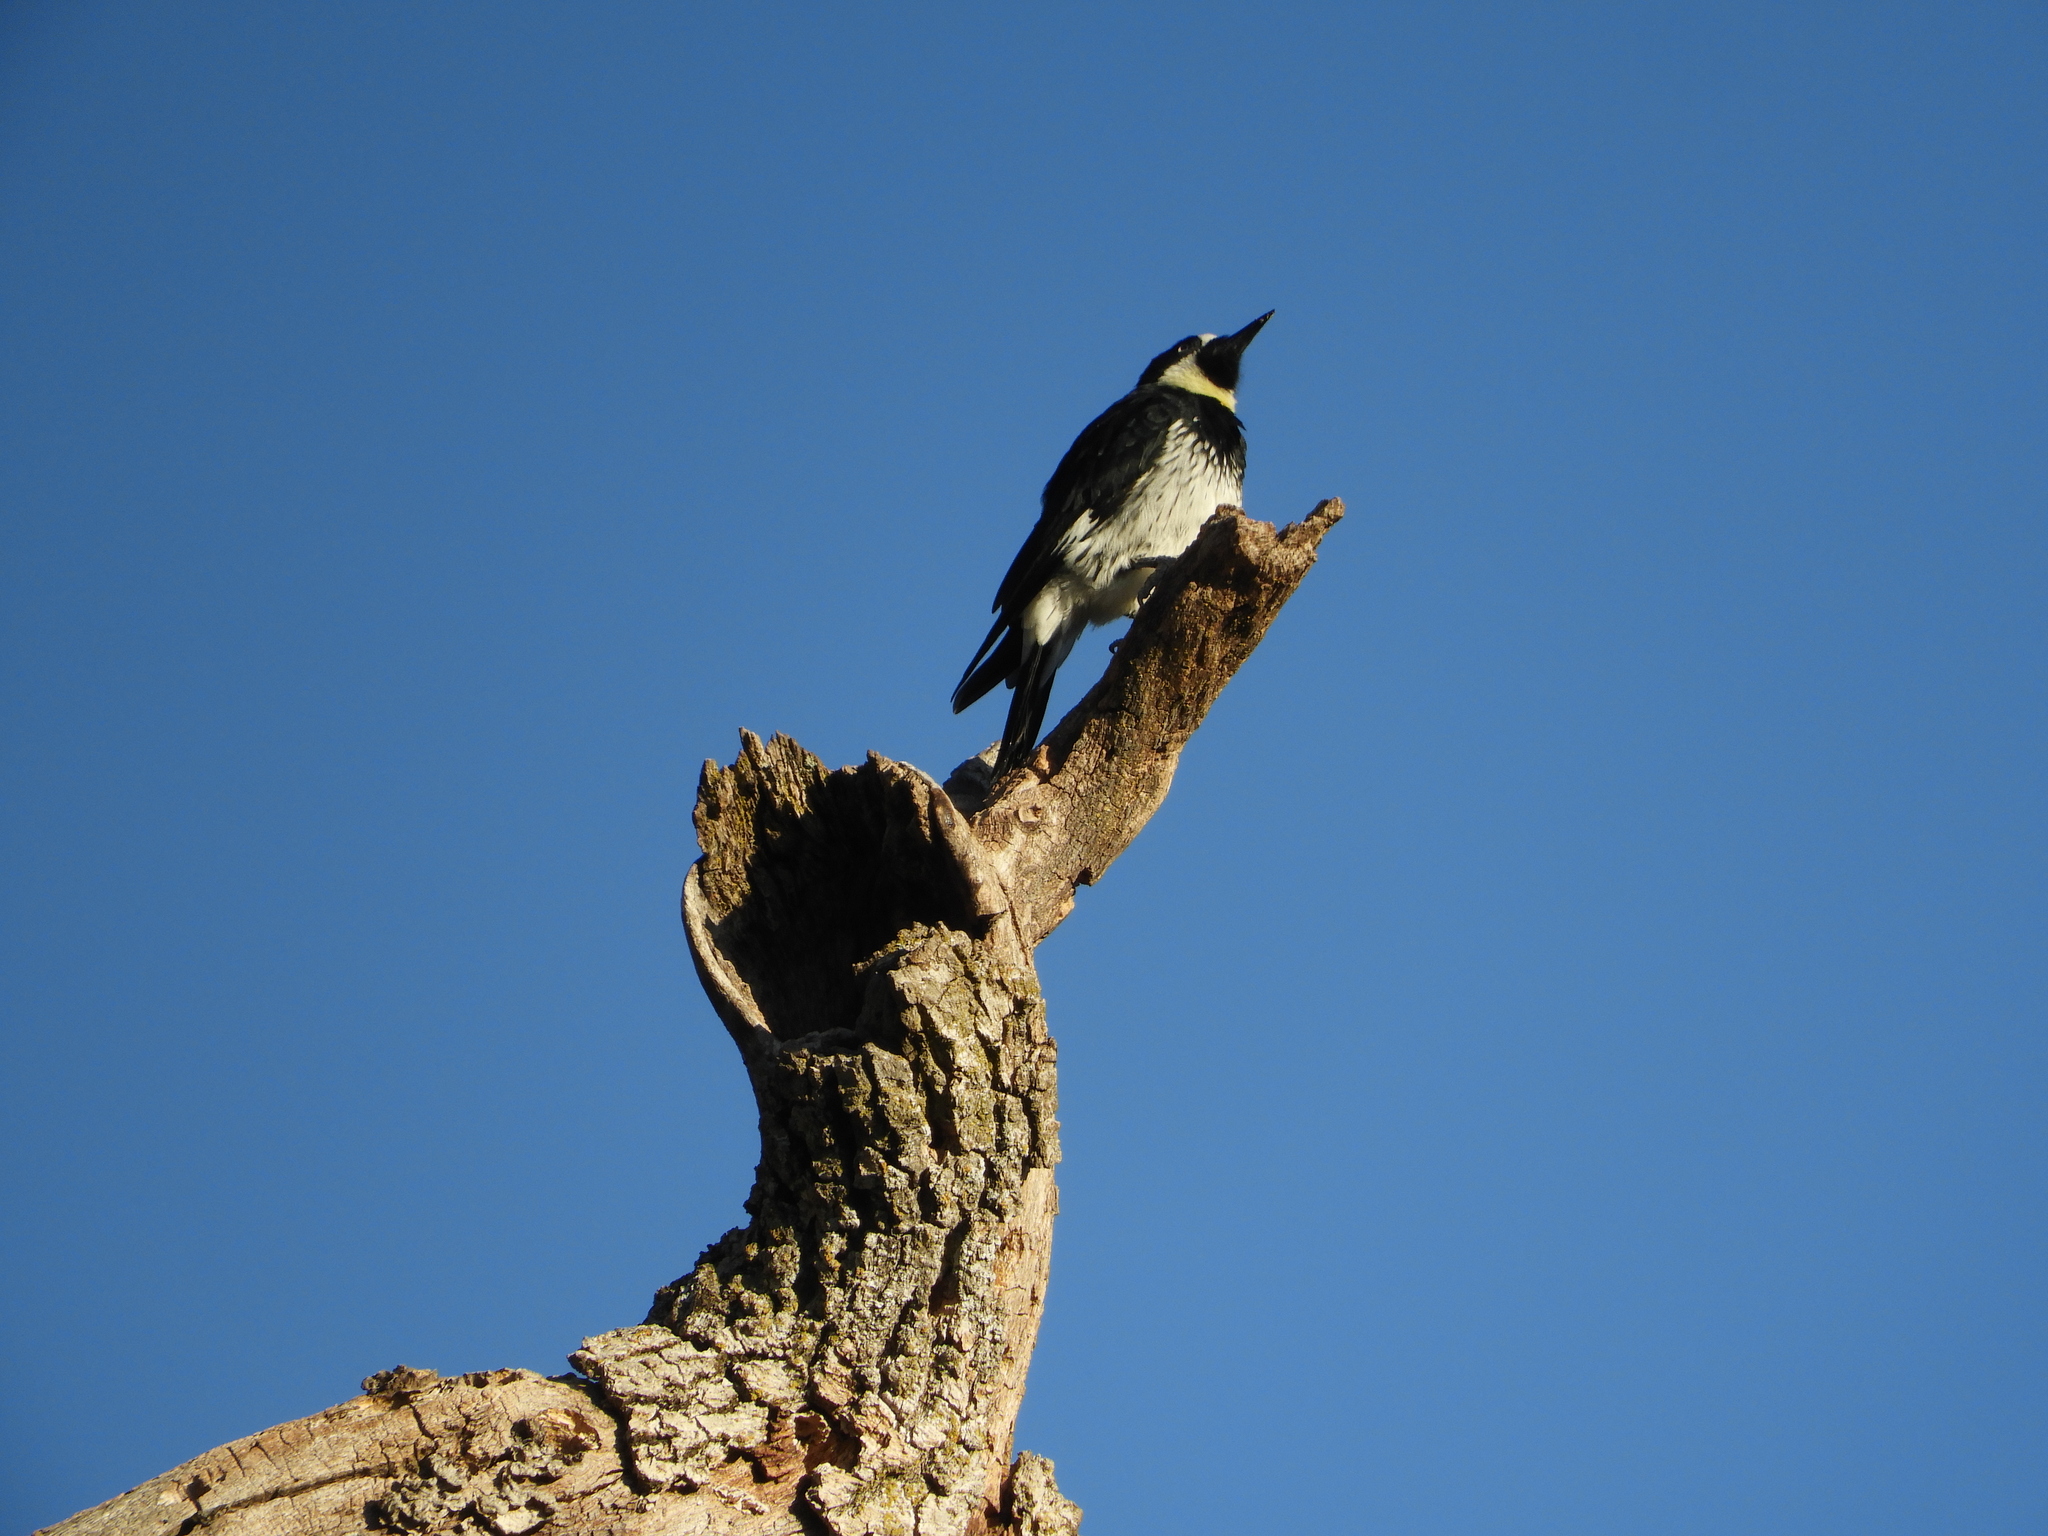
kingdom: Animalia
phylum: Chordata
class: Aves
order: Piciformes
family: Picidae
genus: Melanerpes
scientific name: Melanerpes formicivorus
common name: Acorn woodpecker
